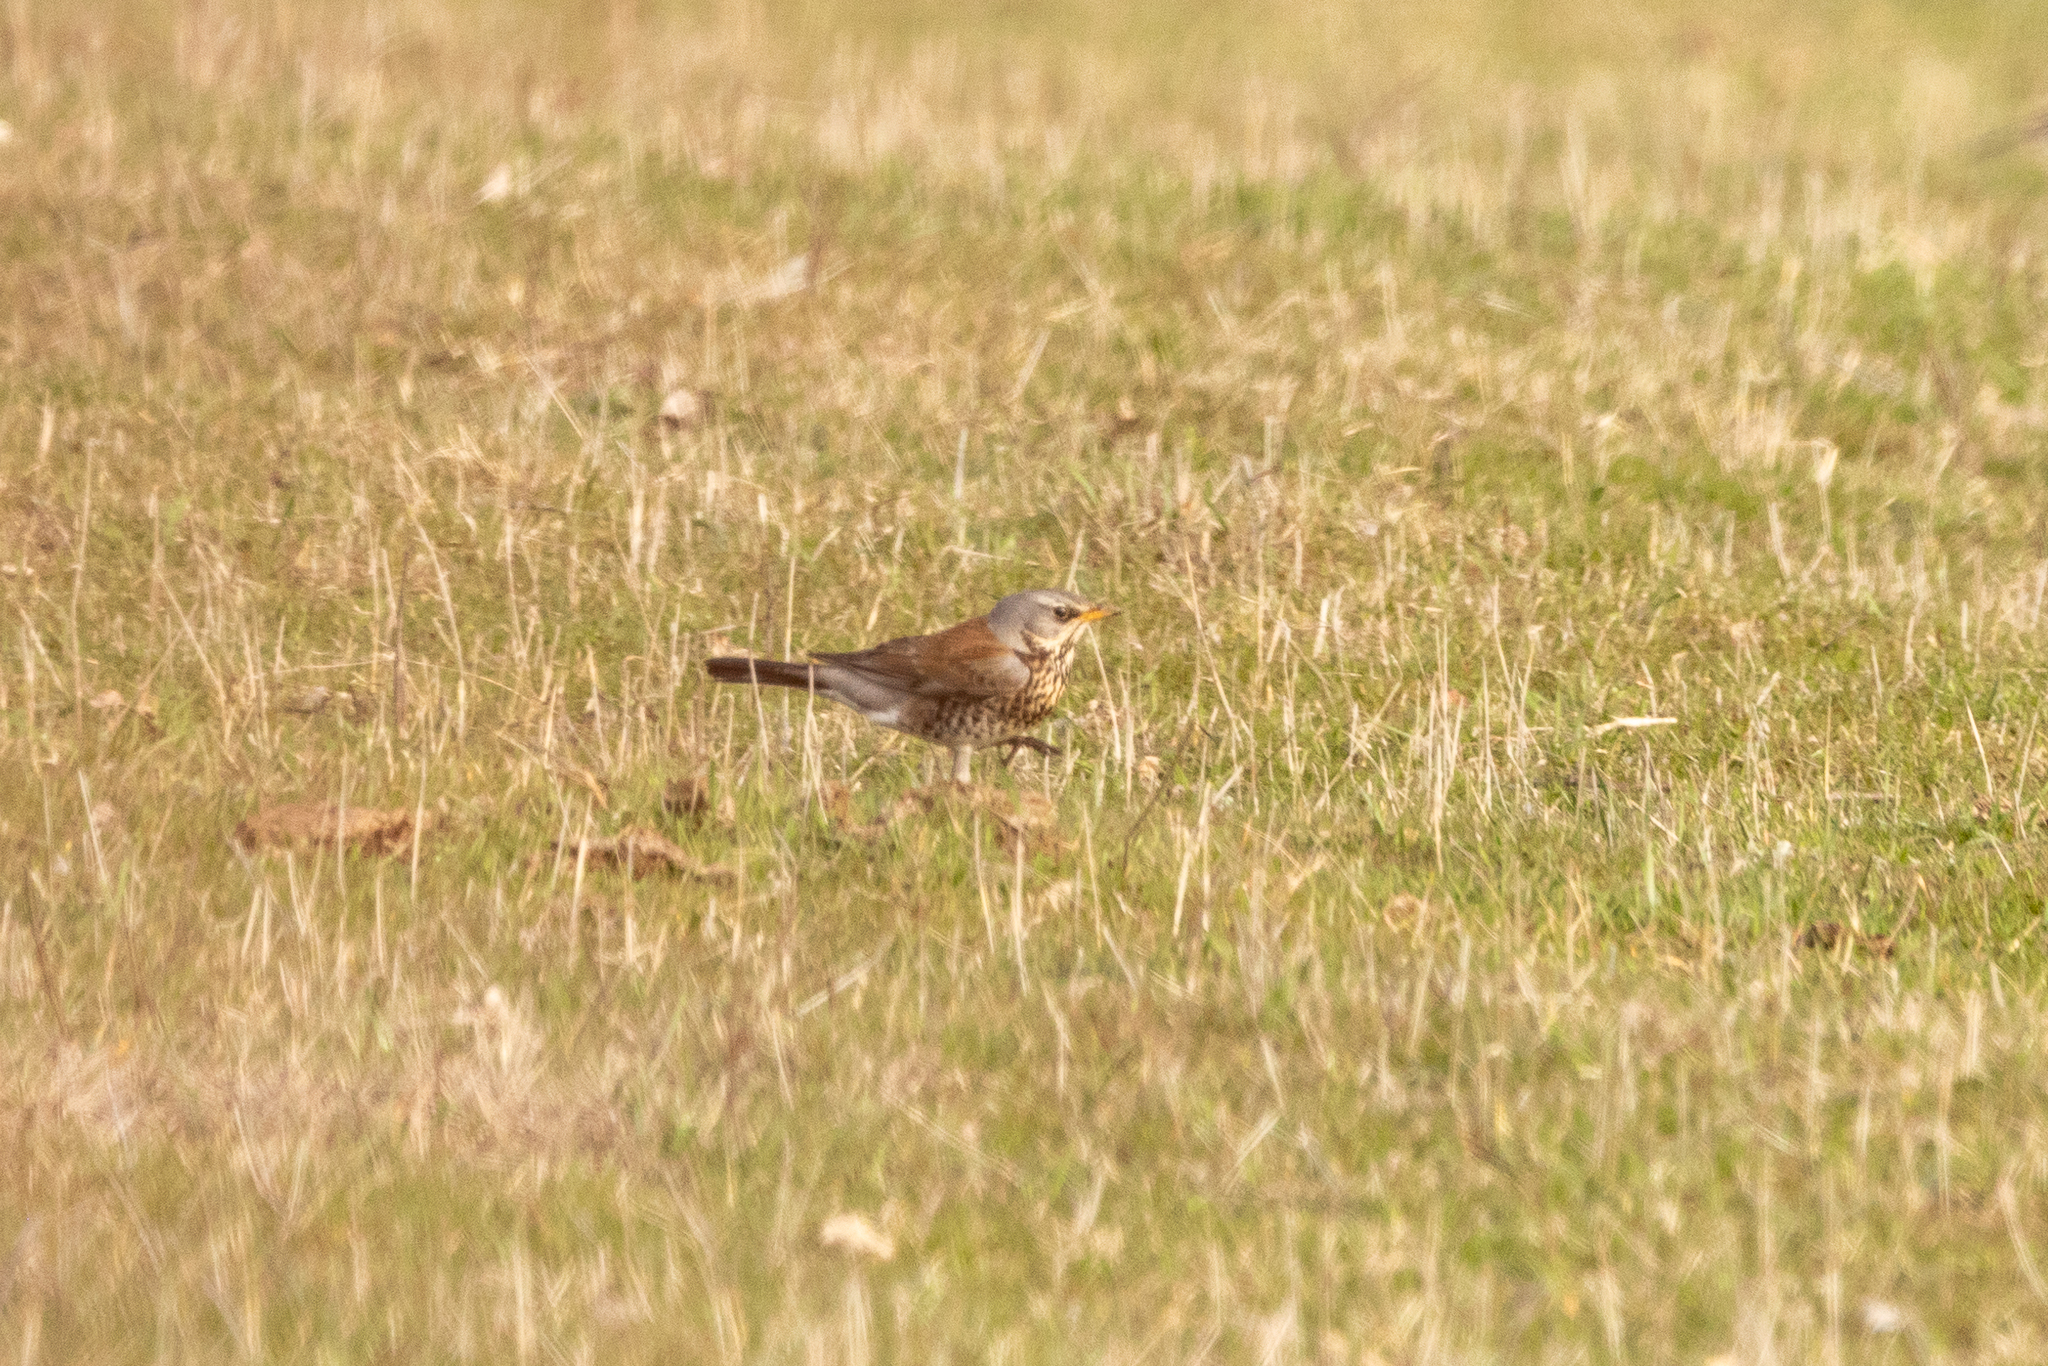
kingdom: Animalia
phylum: Chordata
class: Aves
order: Passeriformes
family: Turdidae
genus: Turdus
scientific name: Turdus pilaris
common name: Fieldfare
